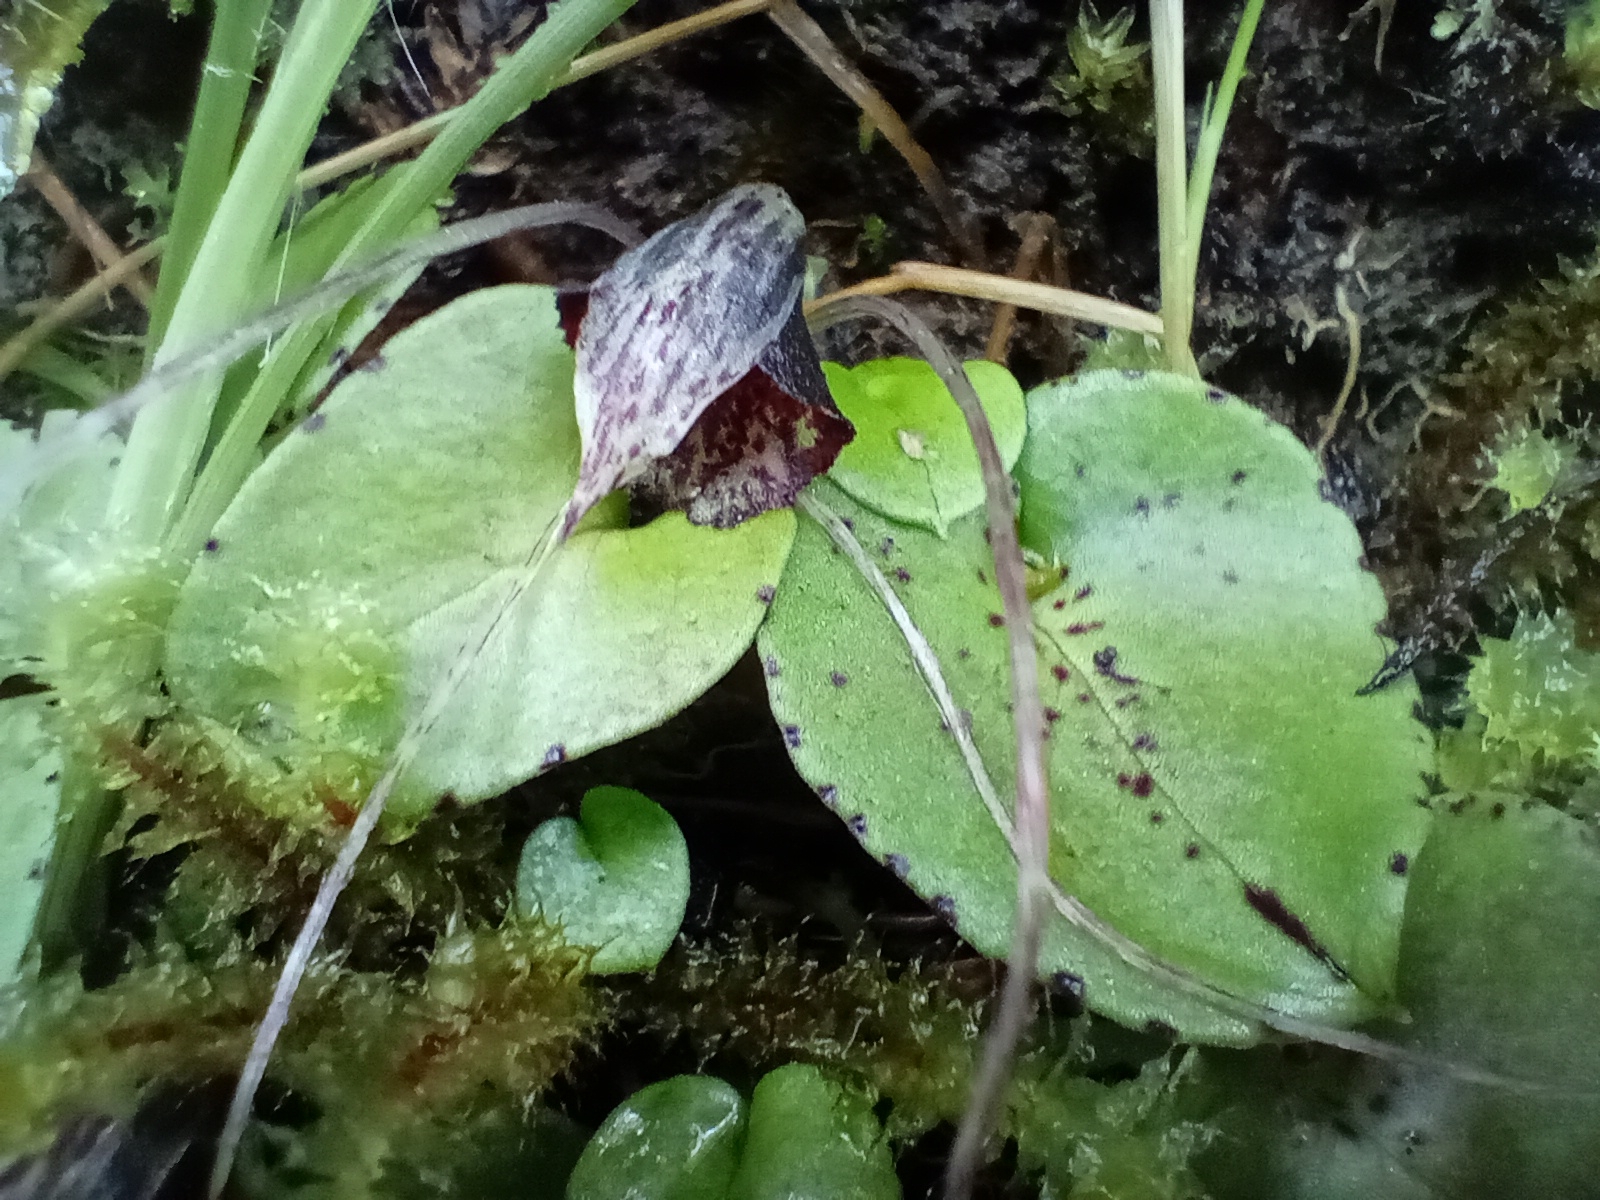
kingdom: Plantae
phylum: Tracheophyta
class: Liliopsida
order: Asparagales
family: Orchidaceae
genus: Corybas
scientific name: Corybas iridescens
